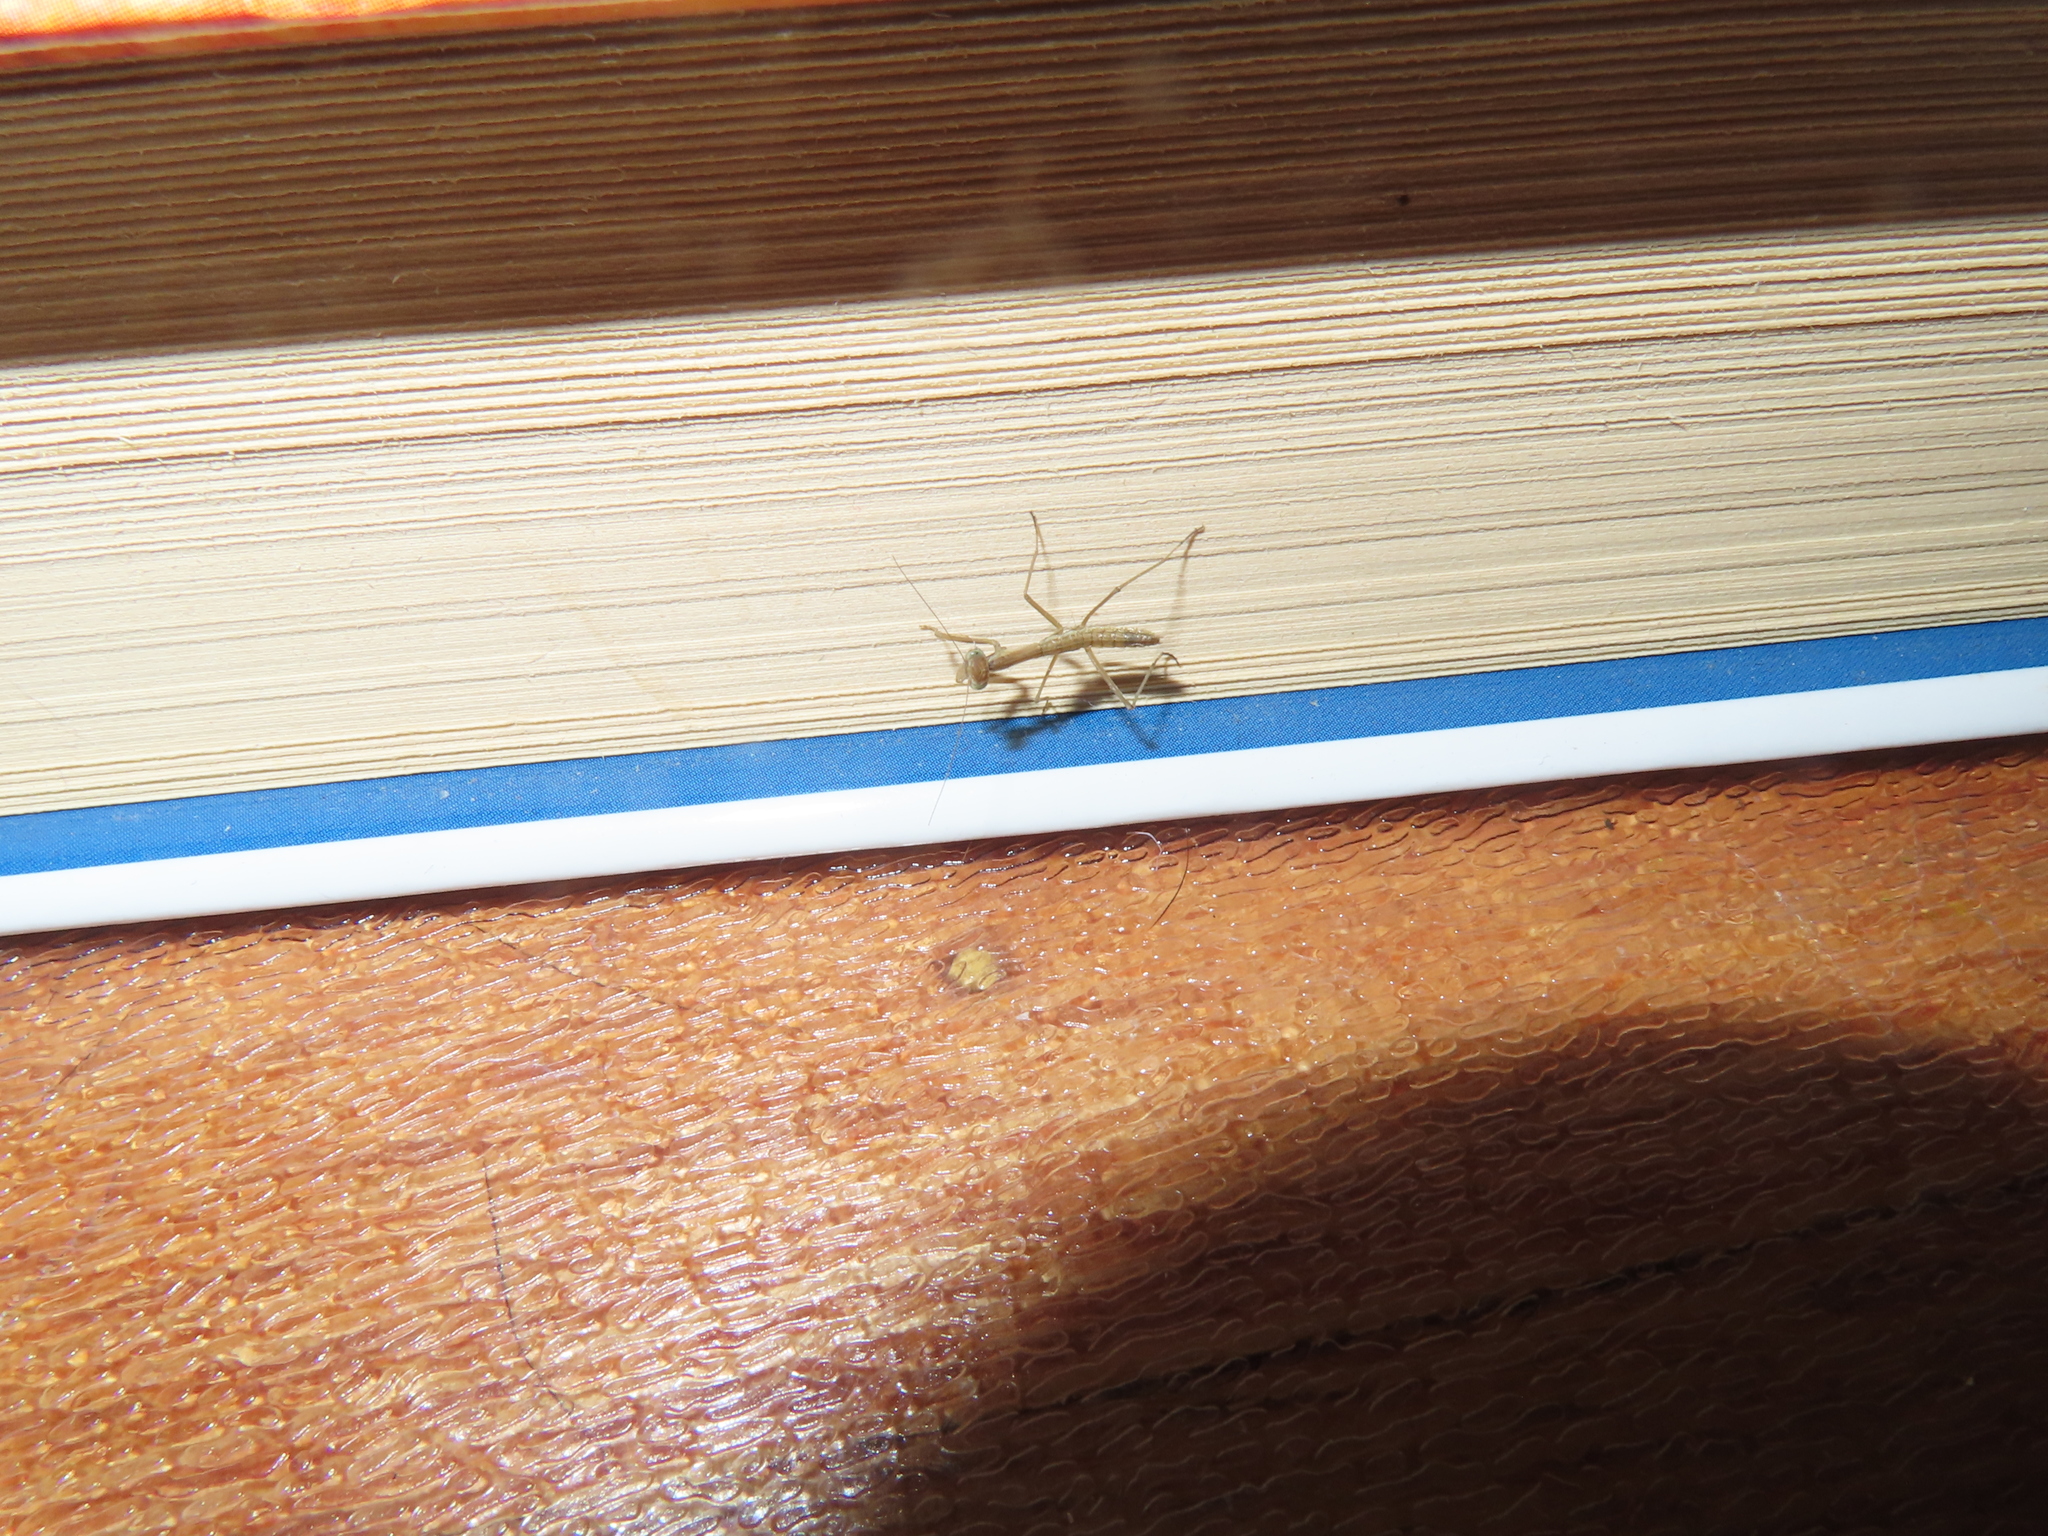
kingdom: Animalia
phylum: Arthropoda
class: Insecta
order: Mantodea
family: Mantidae
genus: Tenodera
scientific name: Tenodera sinensis
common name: Chinese mantis
